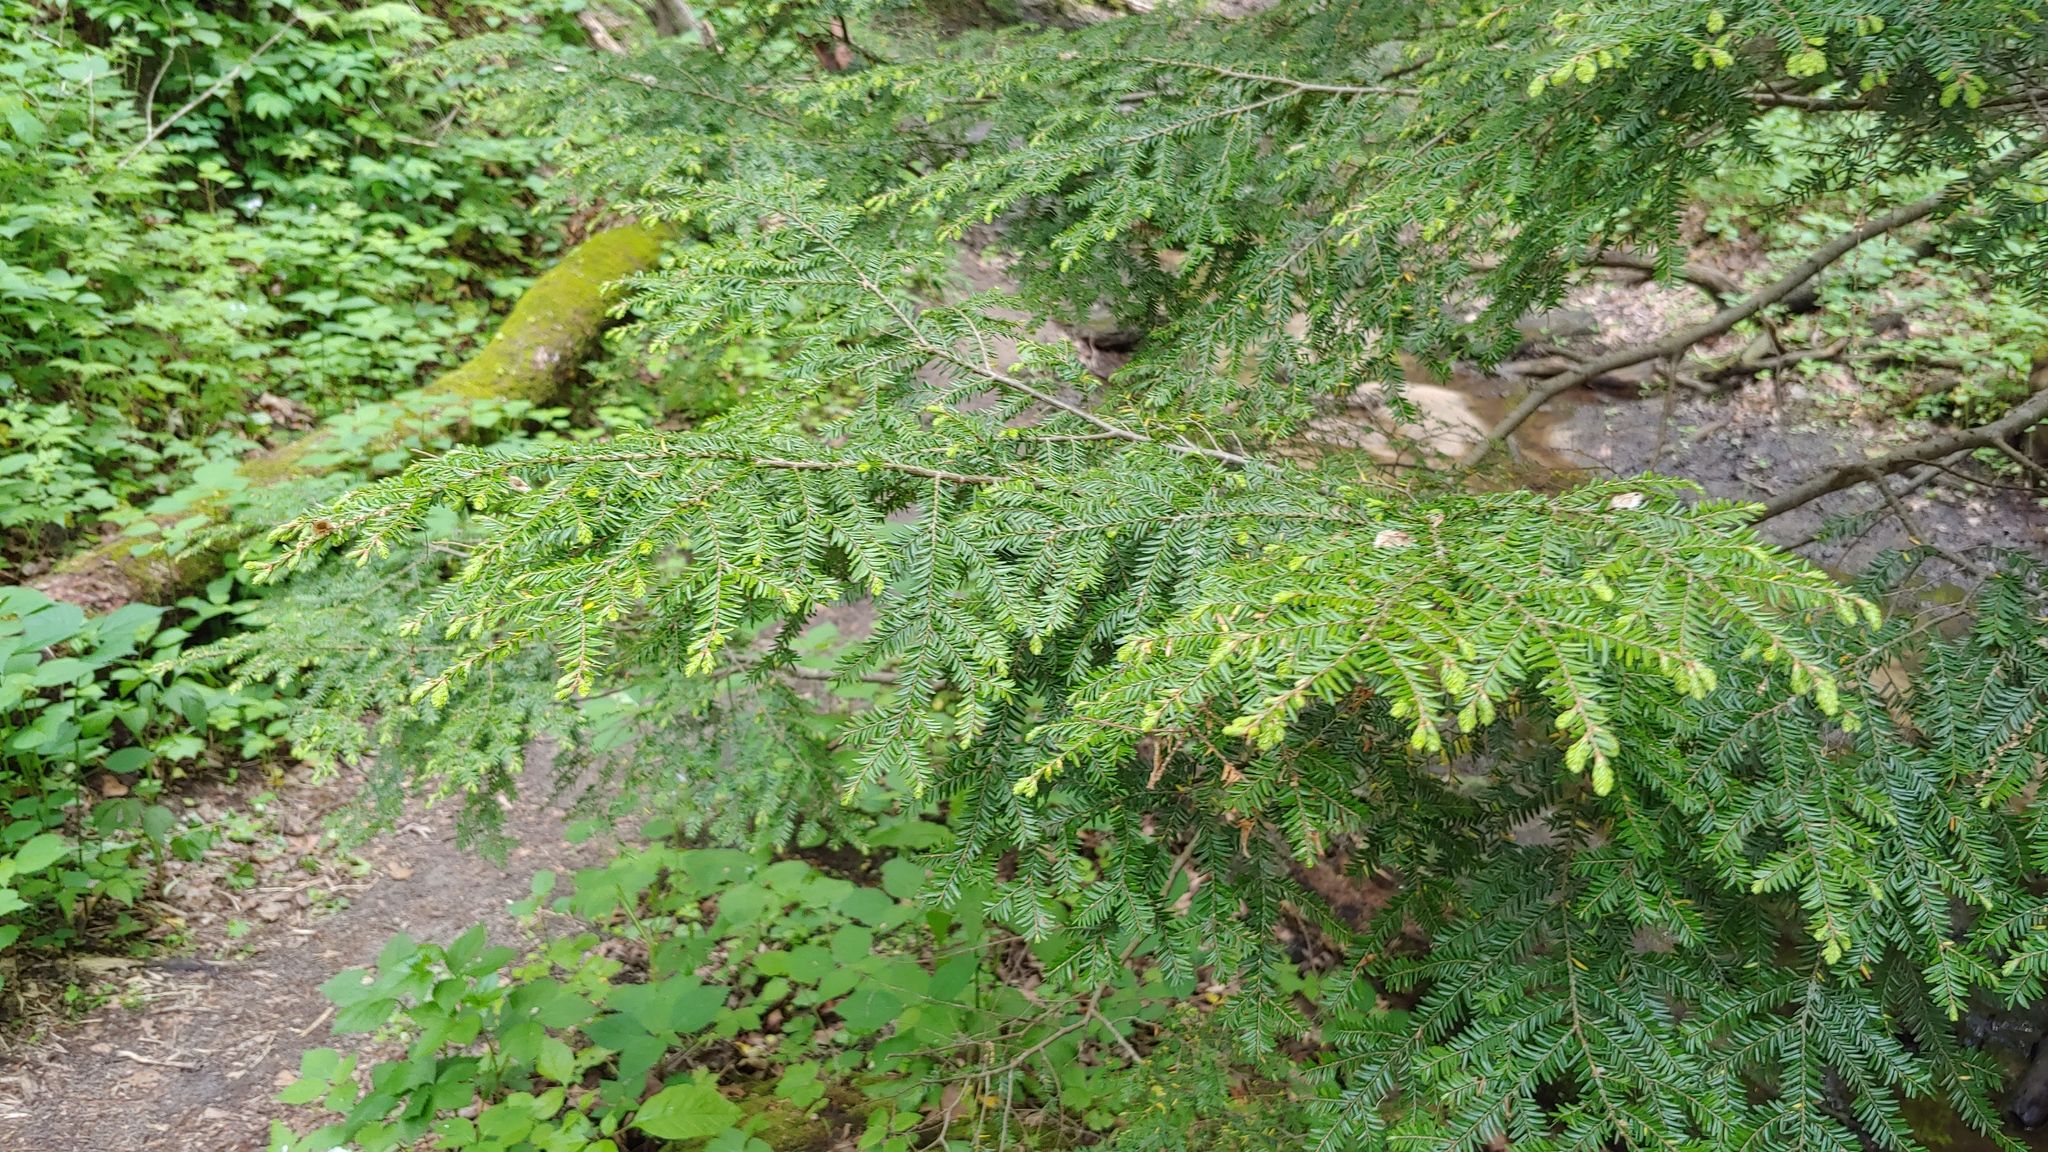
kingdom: Plantae
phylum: Tracheophyta
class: Pinopsida
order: Pinales
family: Pinaceae
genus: Tsuga
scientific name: Tsuga canadensis
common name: Eastern hemlock
